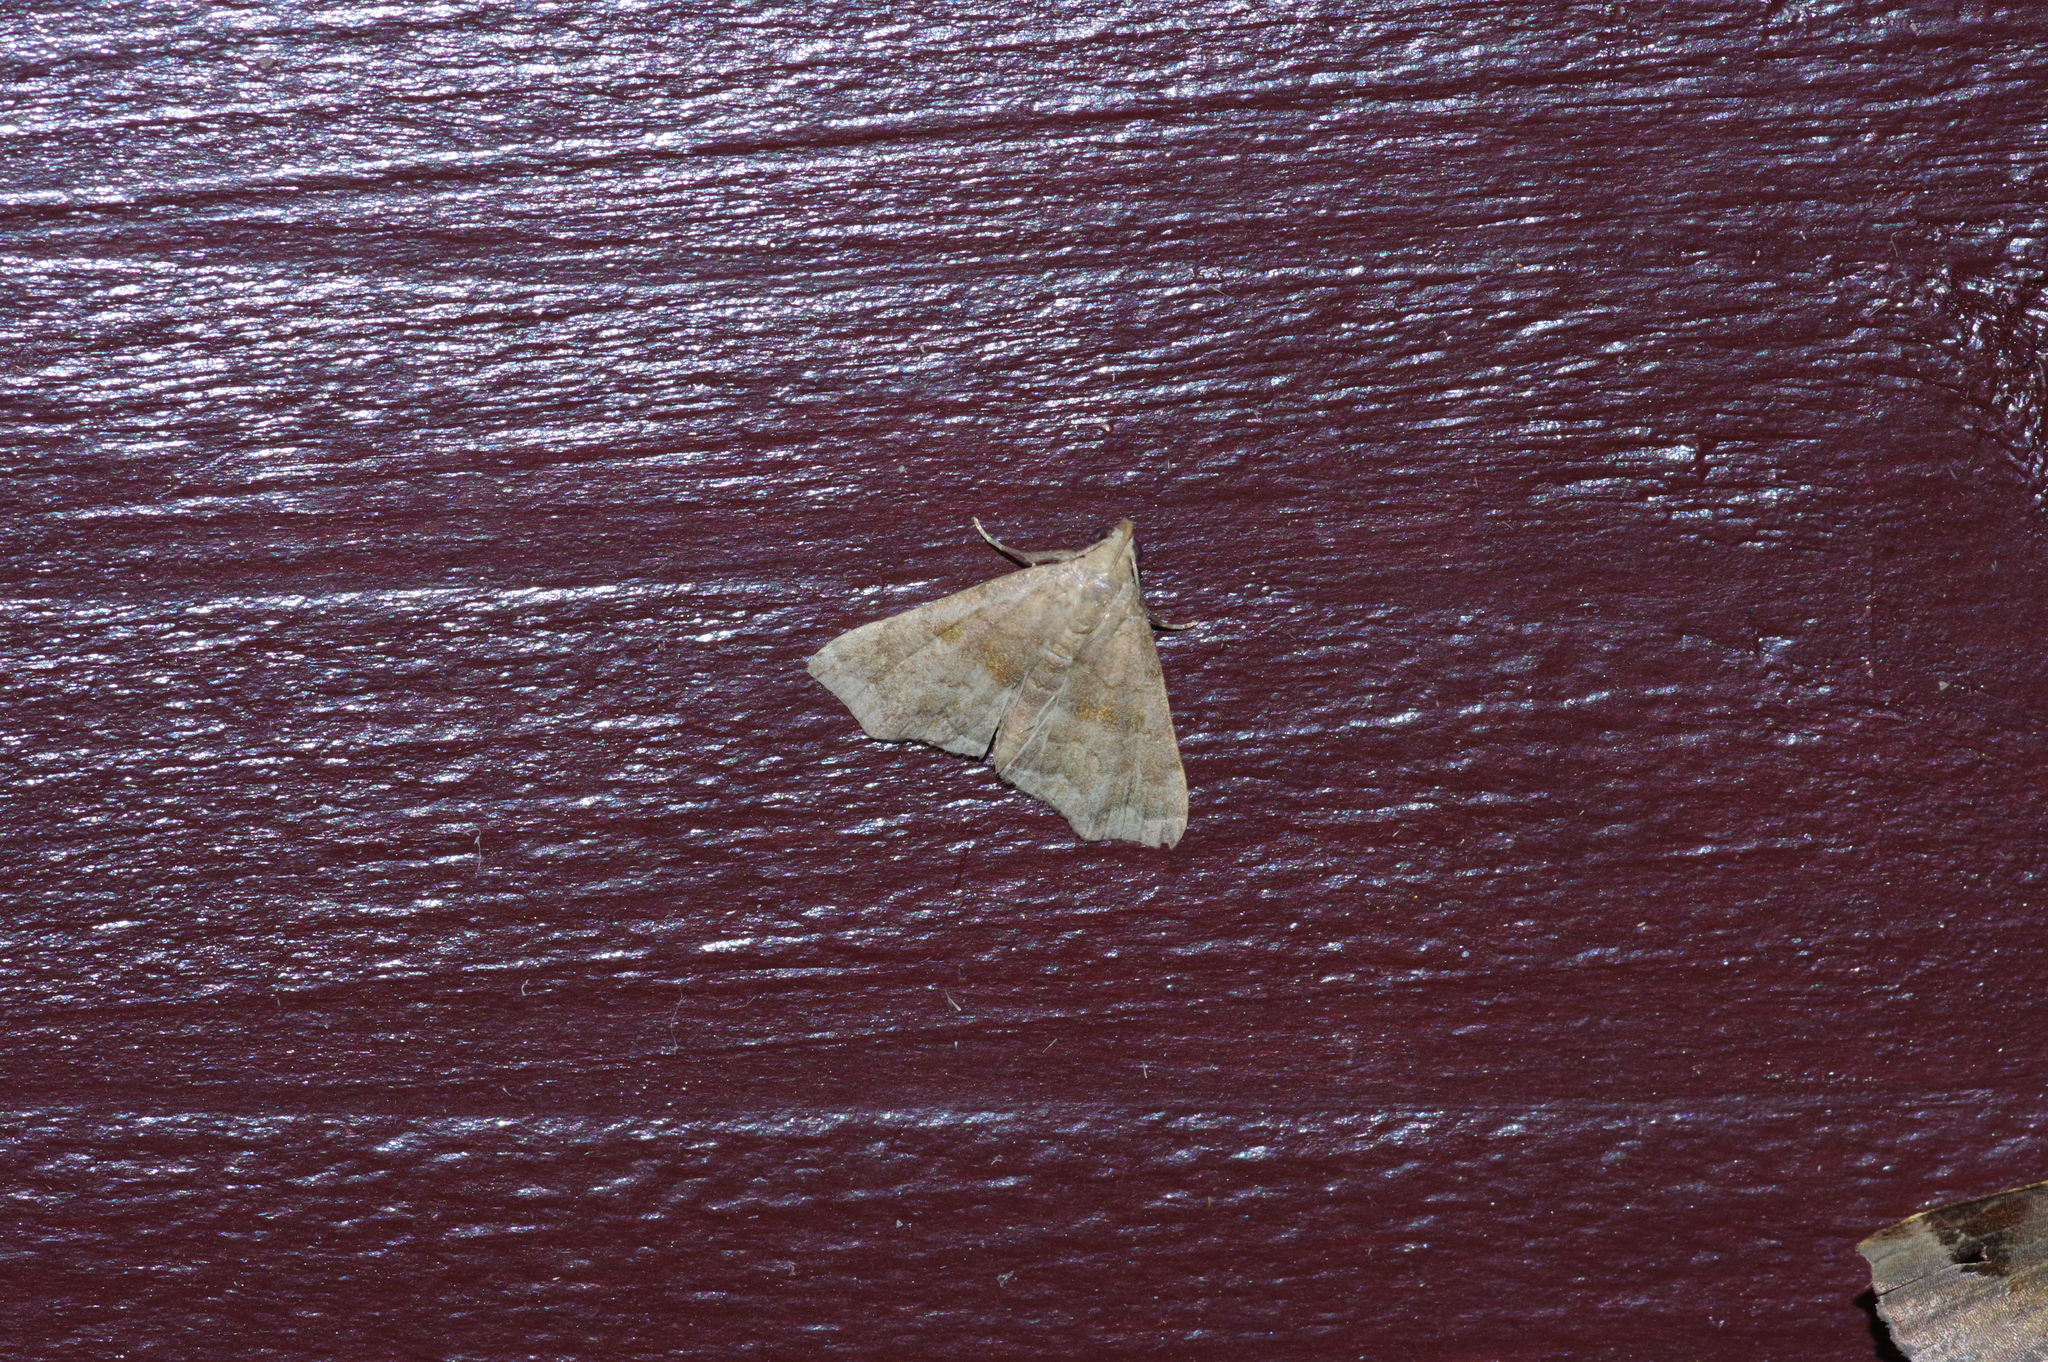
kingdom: Animalia
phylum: Arthropoda
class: Insecta
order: Lepidoptera
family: Erebidae
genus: Polypogon
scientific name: Polypogon Hipoepa fractalis
